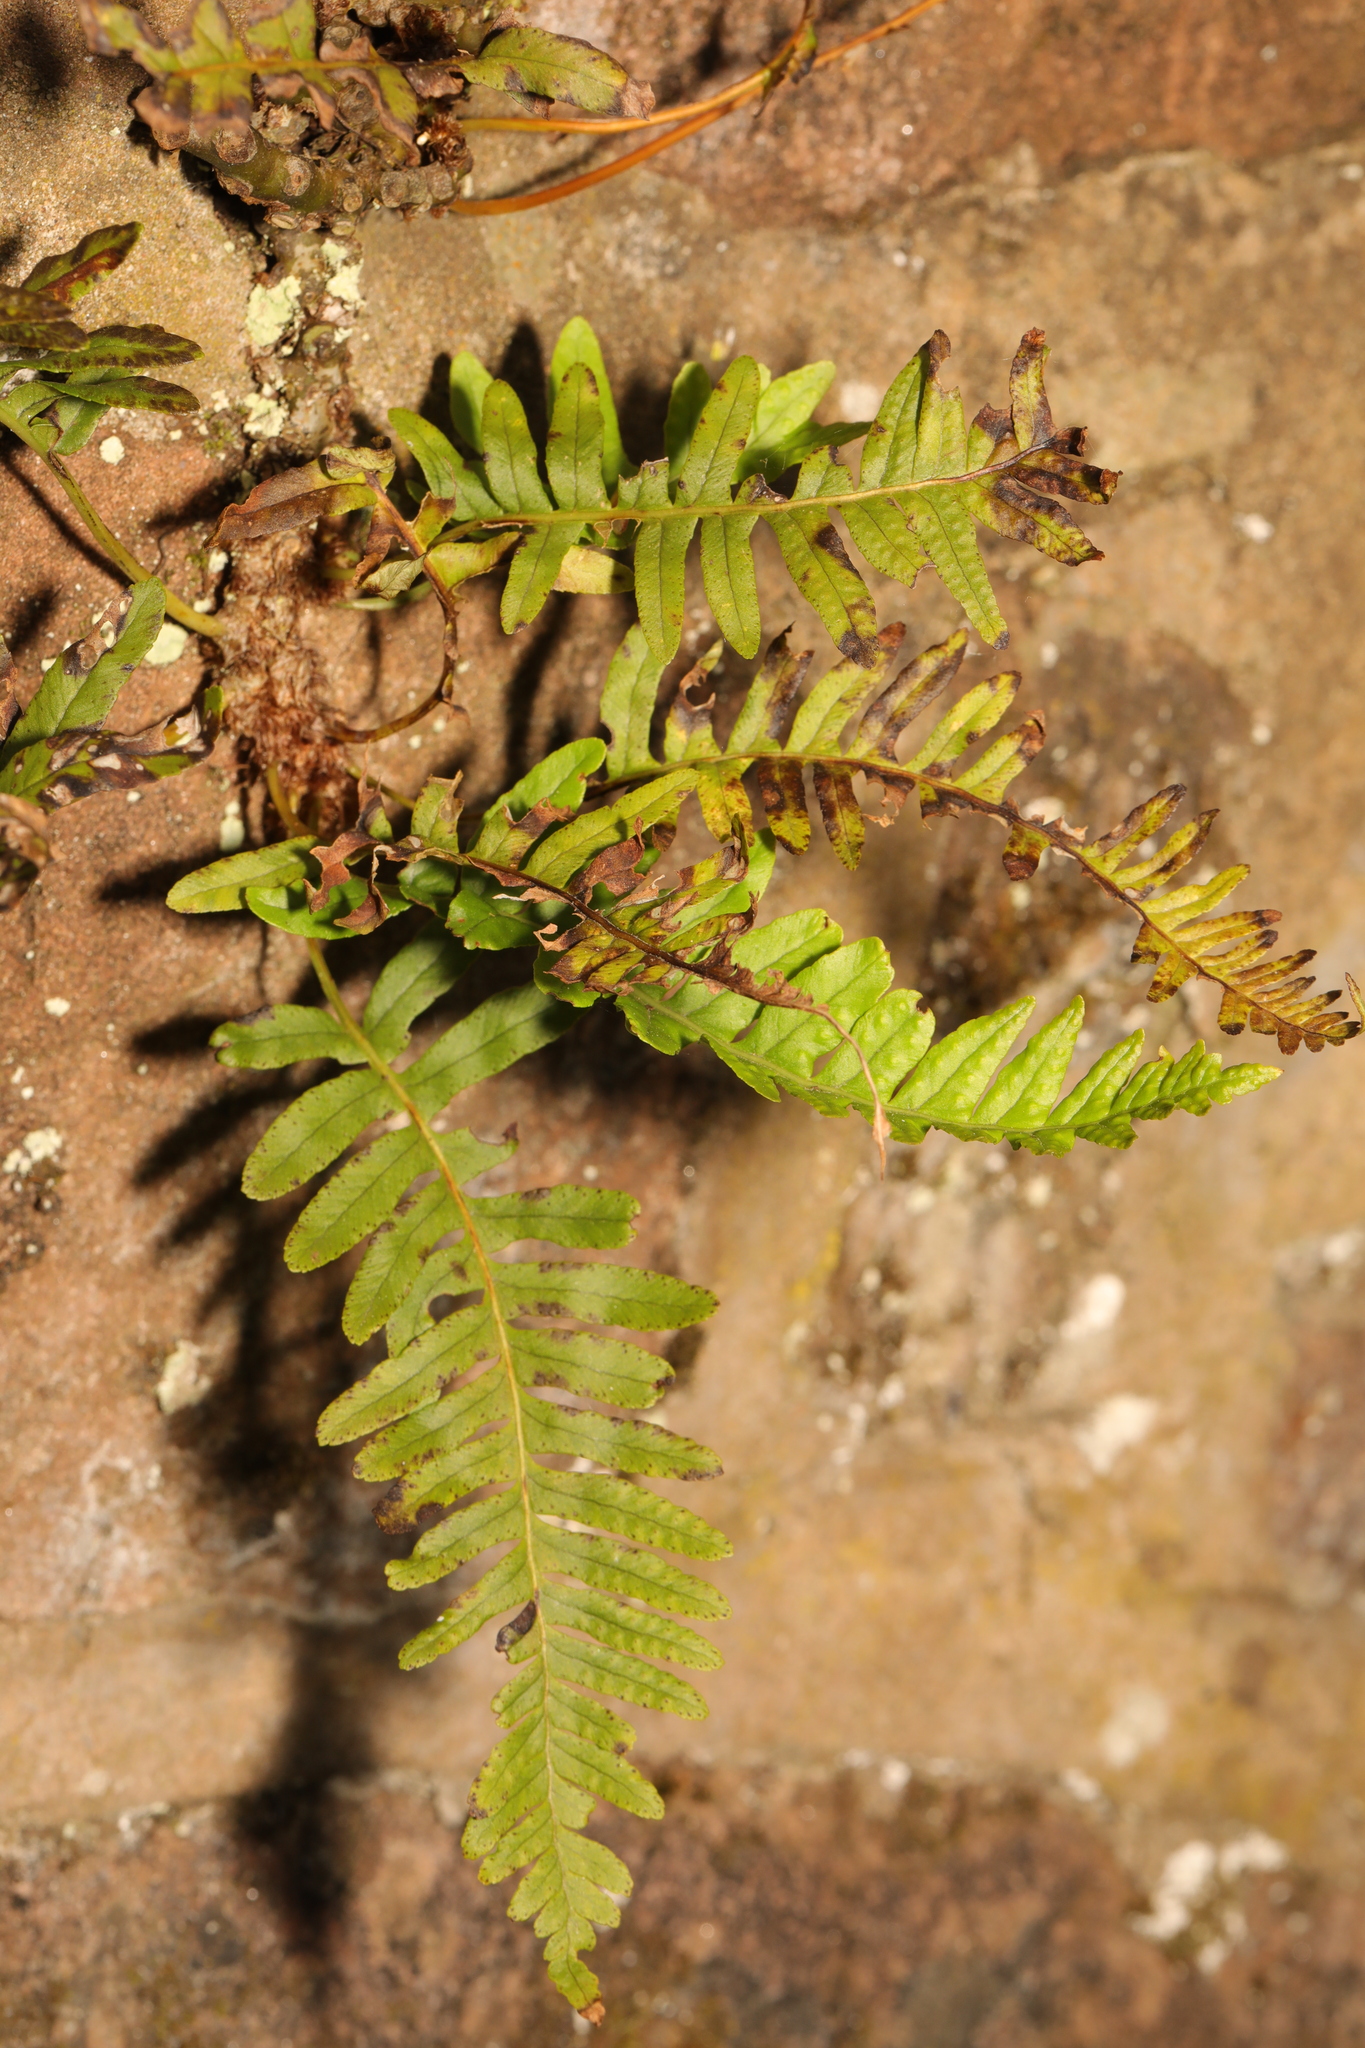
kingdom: Plantae
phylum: Tracheophyta
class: Polypodiopsida
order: Polypodiales
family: Polypodiaceae
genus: Polypodium
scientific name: Polypodium vulgare
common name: Common polypody
